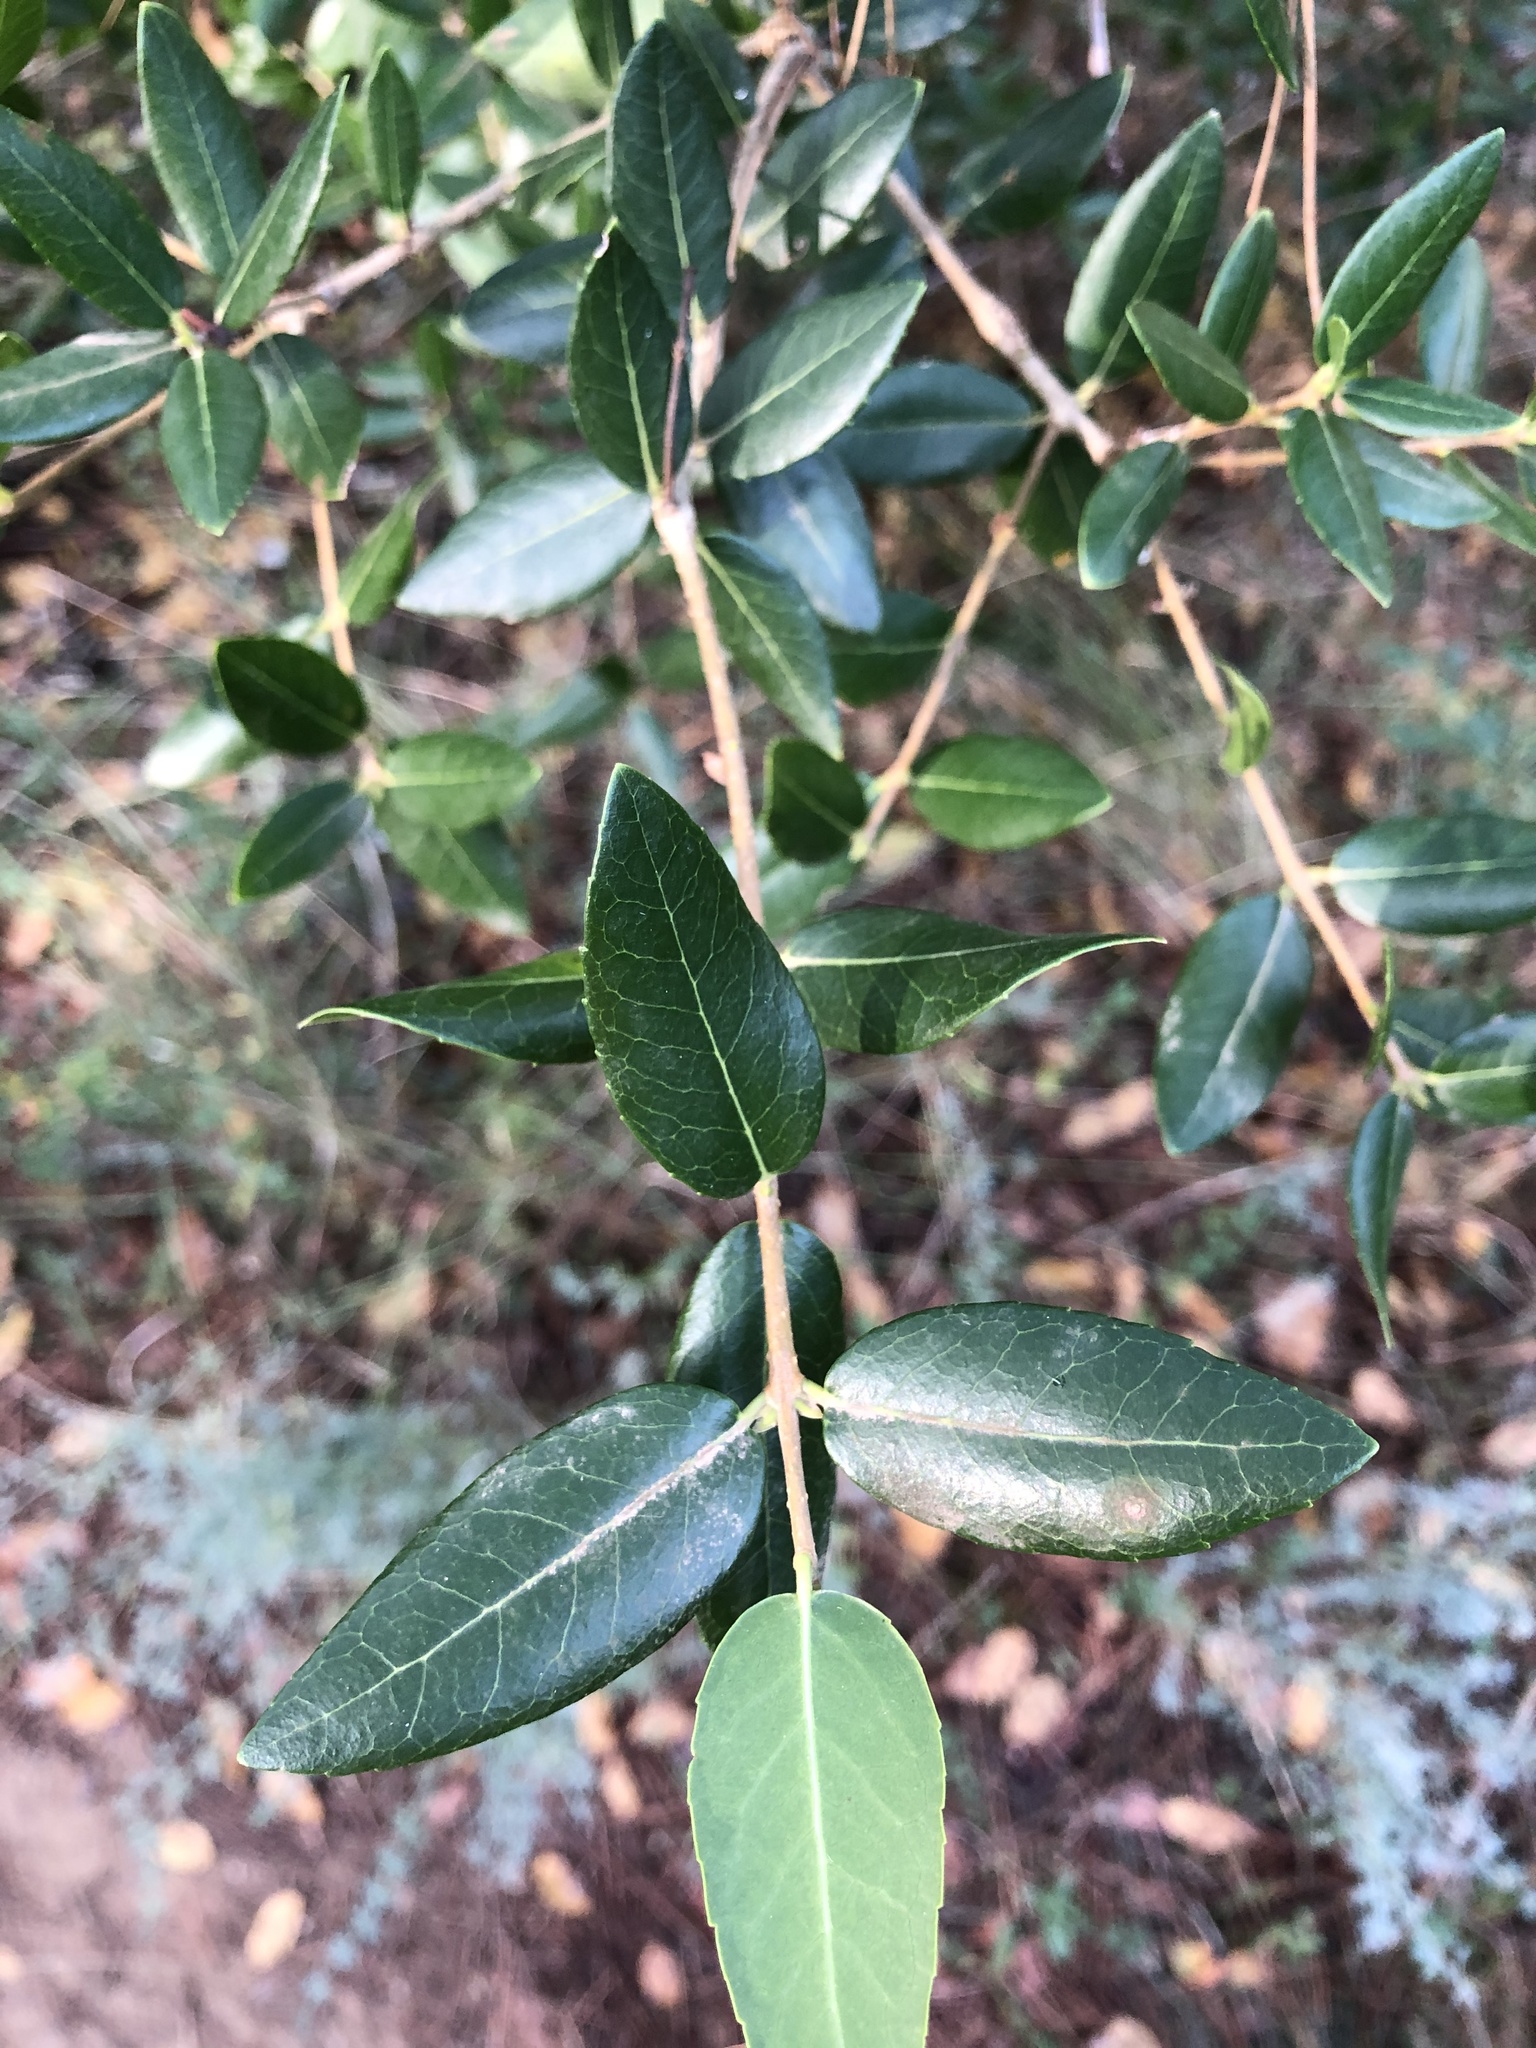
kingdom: Plantae
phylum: Tracheophyta
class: Magnoliopsida
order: Lamiales
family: Oleaceae
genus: Phillyrea
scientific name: Phillyrea latifolia
